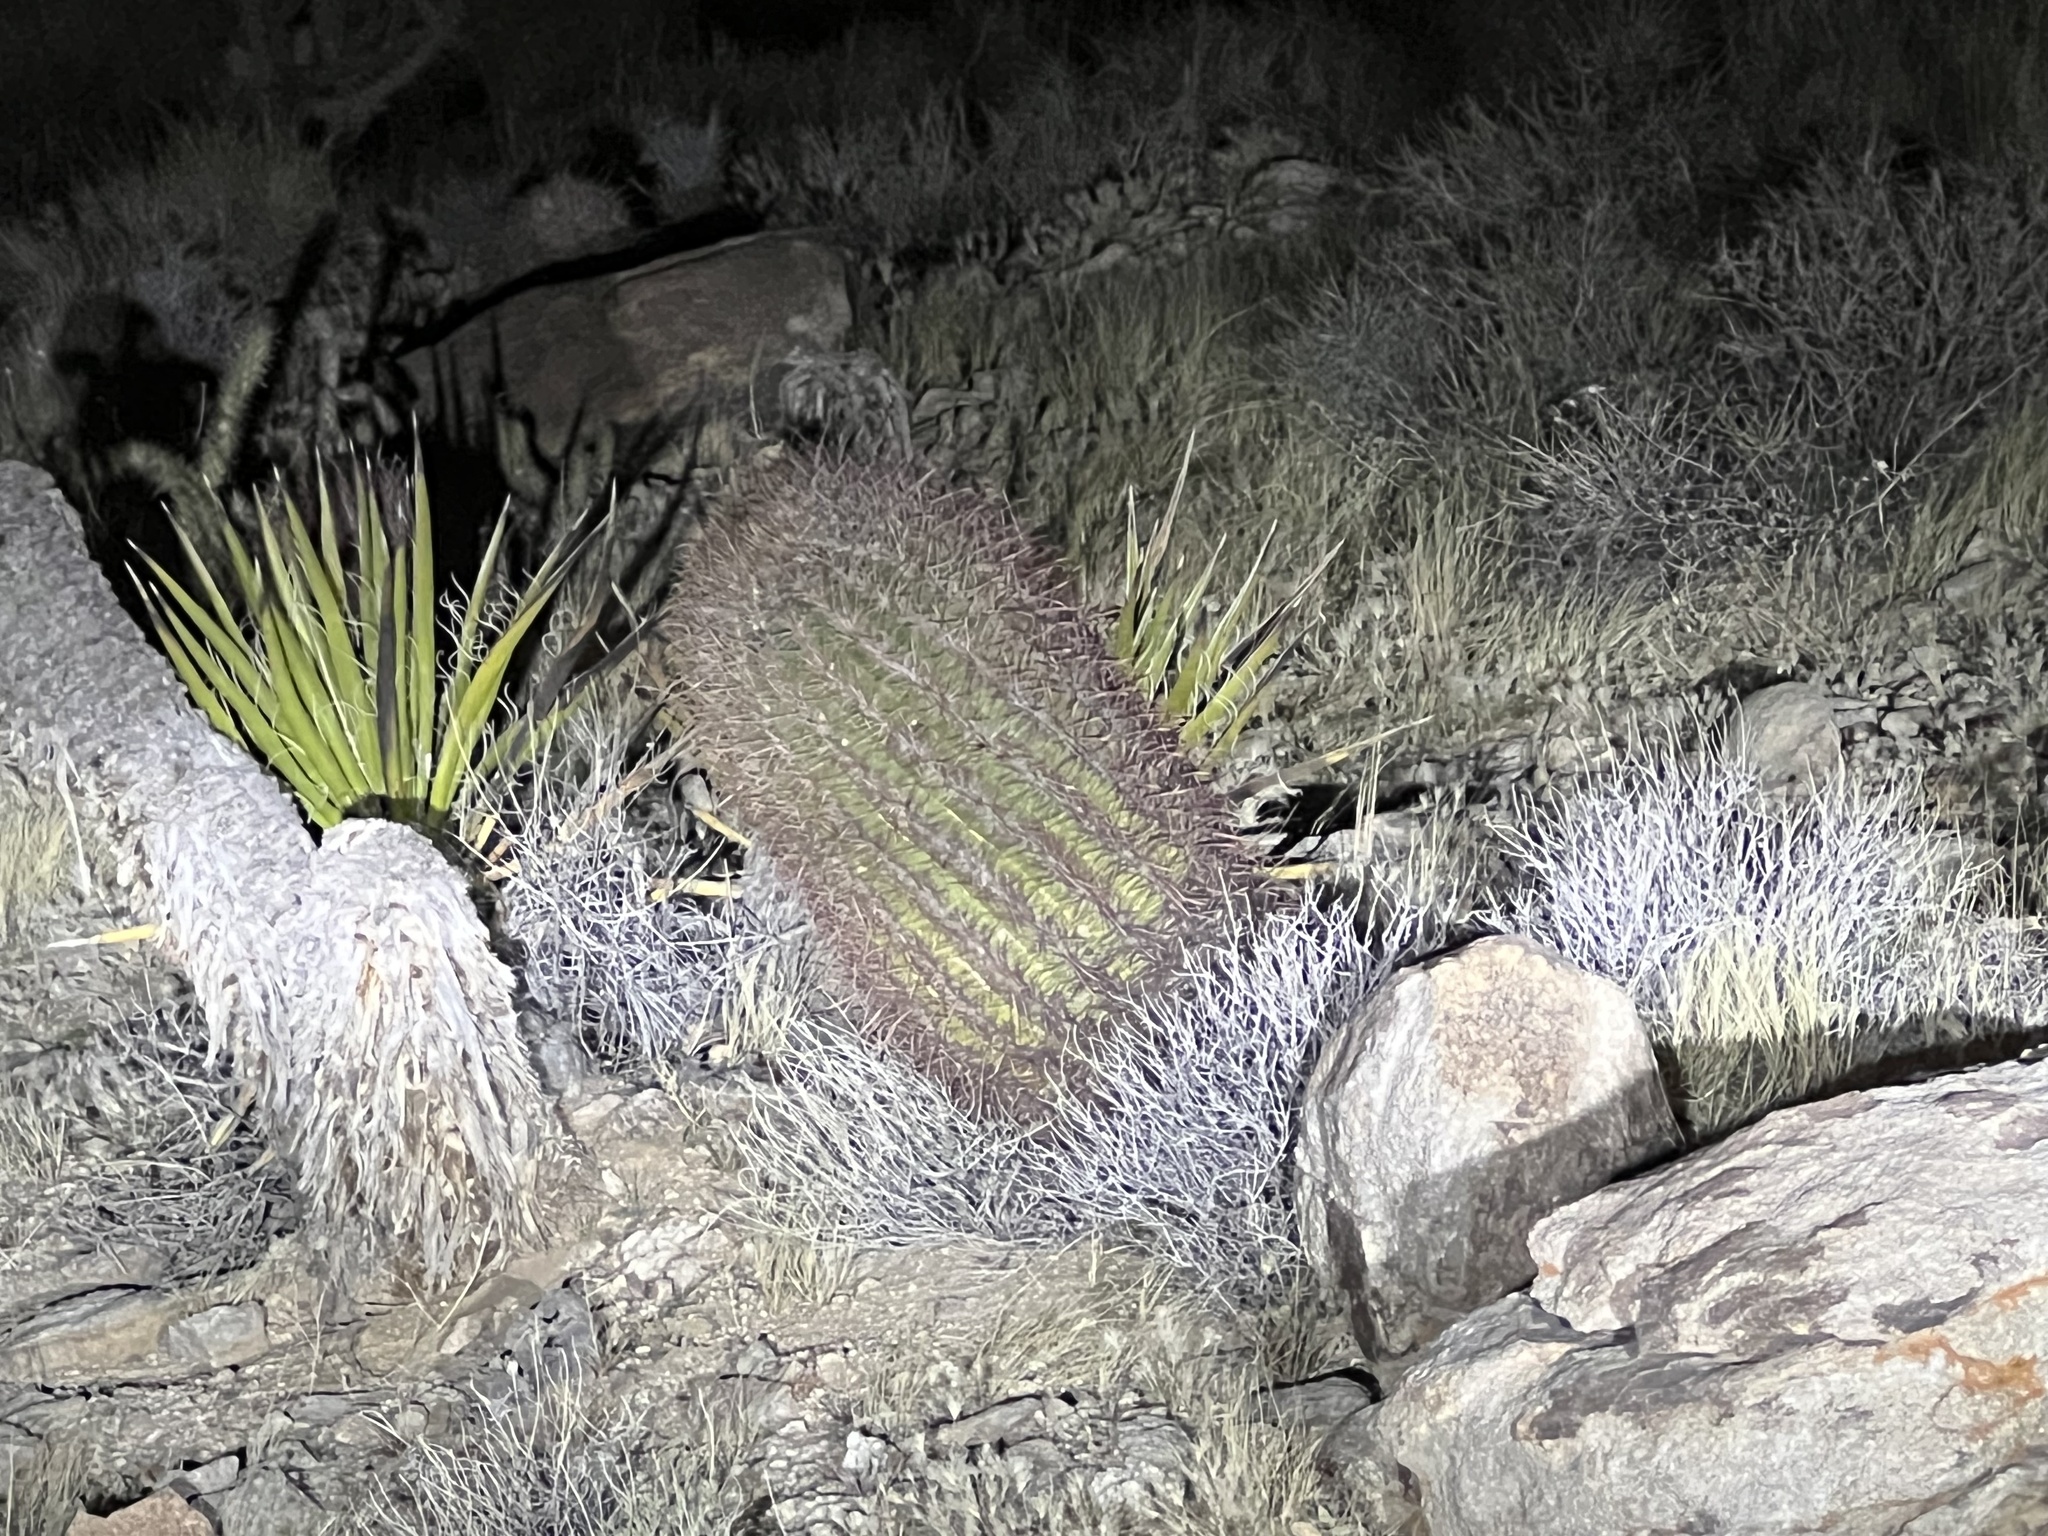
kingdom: Plantae
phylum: Tracheophyta
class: Magnoliopsida
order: Caryophyllales
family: Cactaceae
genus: Ferocactus
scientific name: Ferocactus cylindraceus
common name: California barrel cactus
